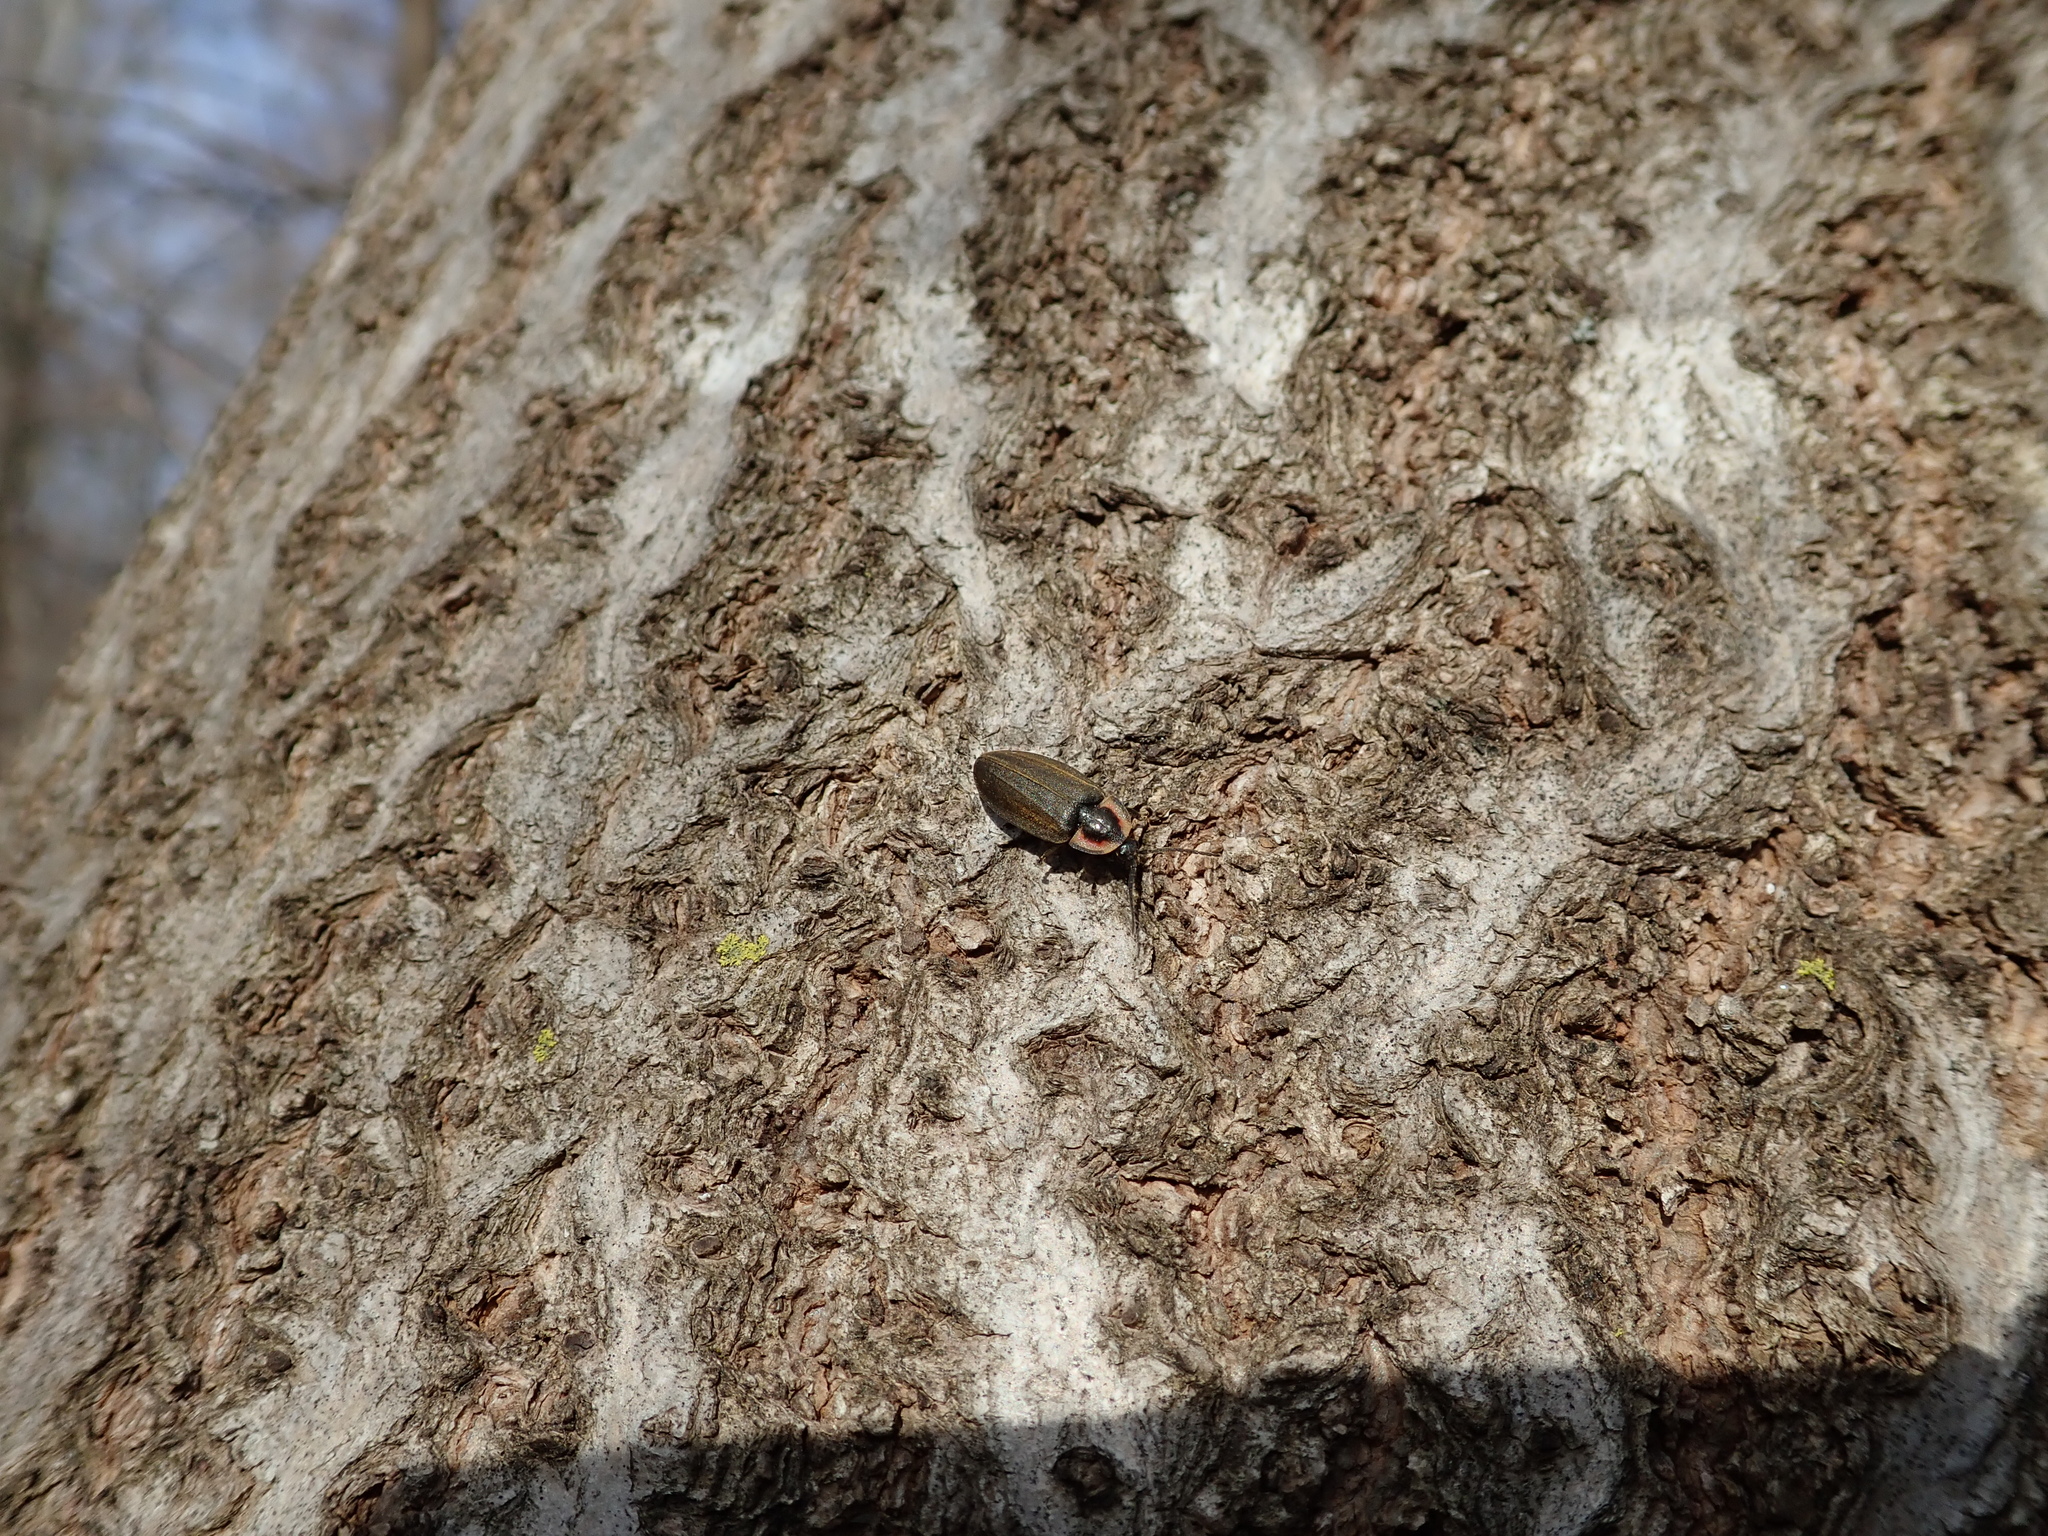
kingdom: Animalia
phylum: Arthropoda
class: Insecta
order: Coleoptera
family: Lampyridae
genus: Photinus
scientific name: Photinus corrusca
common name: Winter firefly
